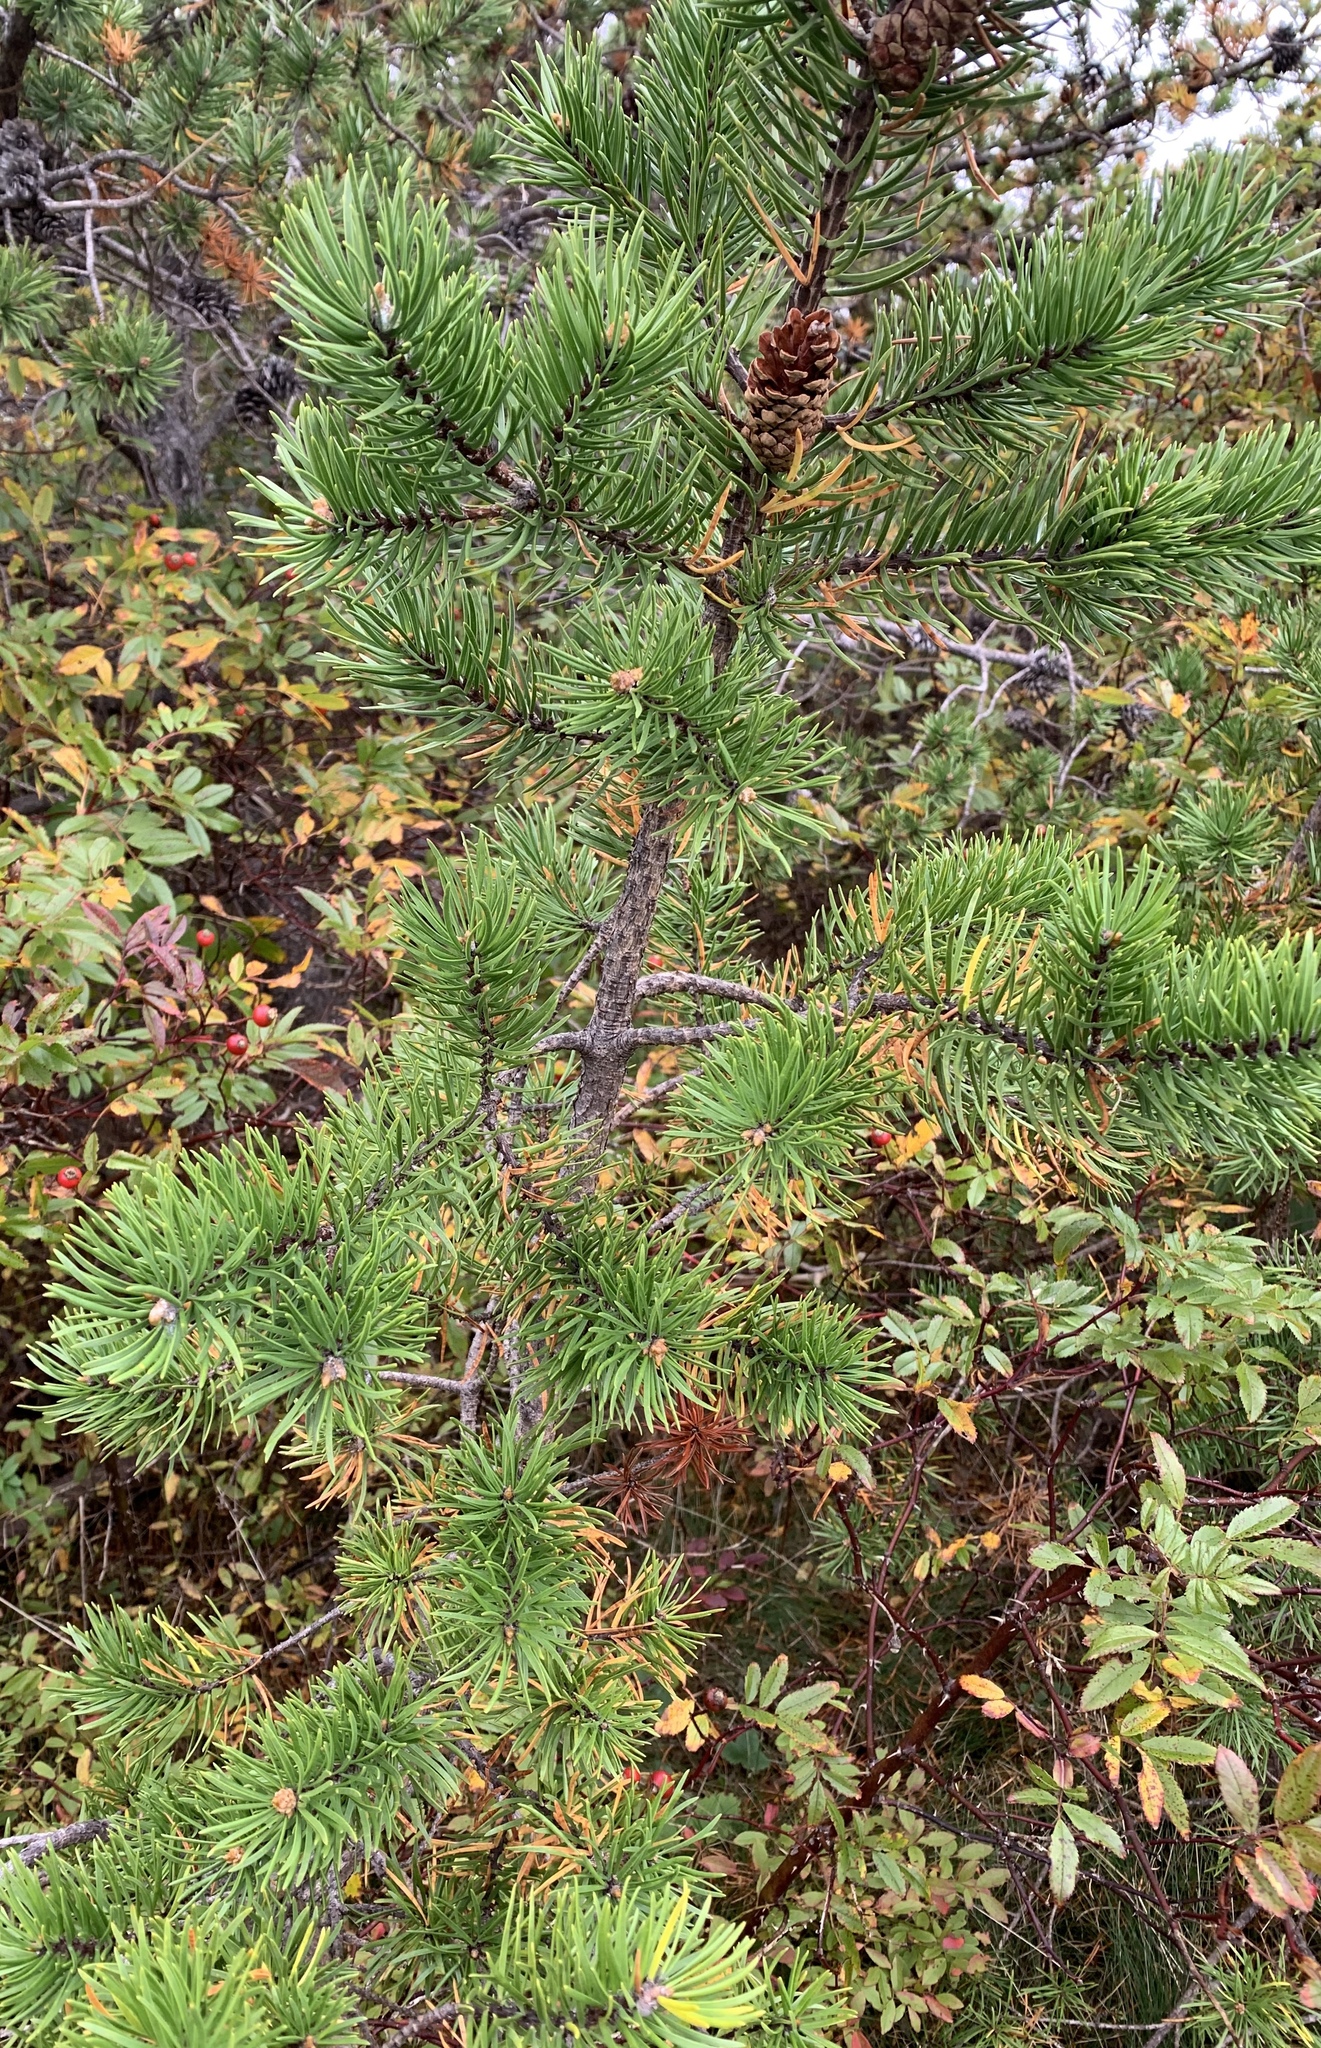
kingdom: Plantae
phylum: Tracheophyta
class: Pinopsida
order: Pinales
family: Pinaceae
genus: Pinus
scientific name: Pinus banksiana
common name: Jack pine
